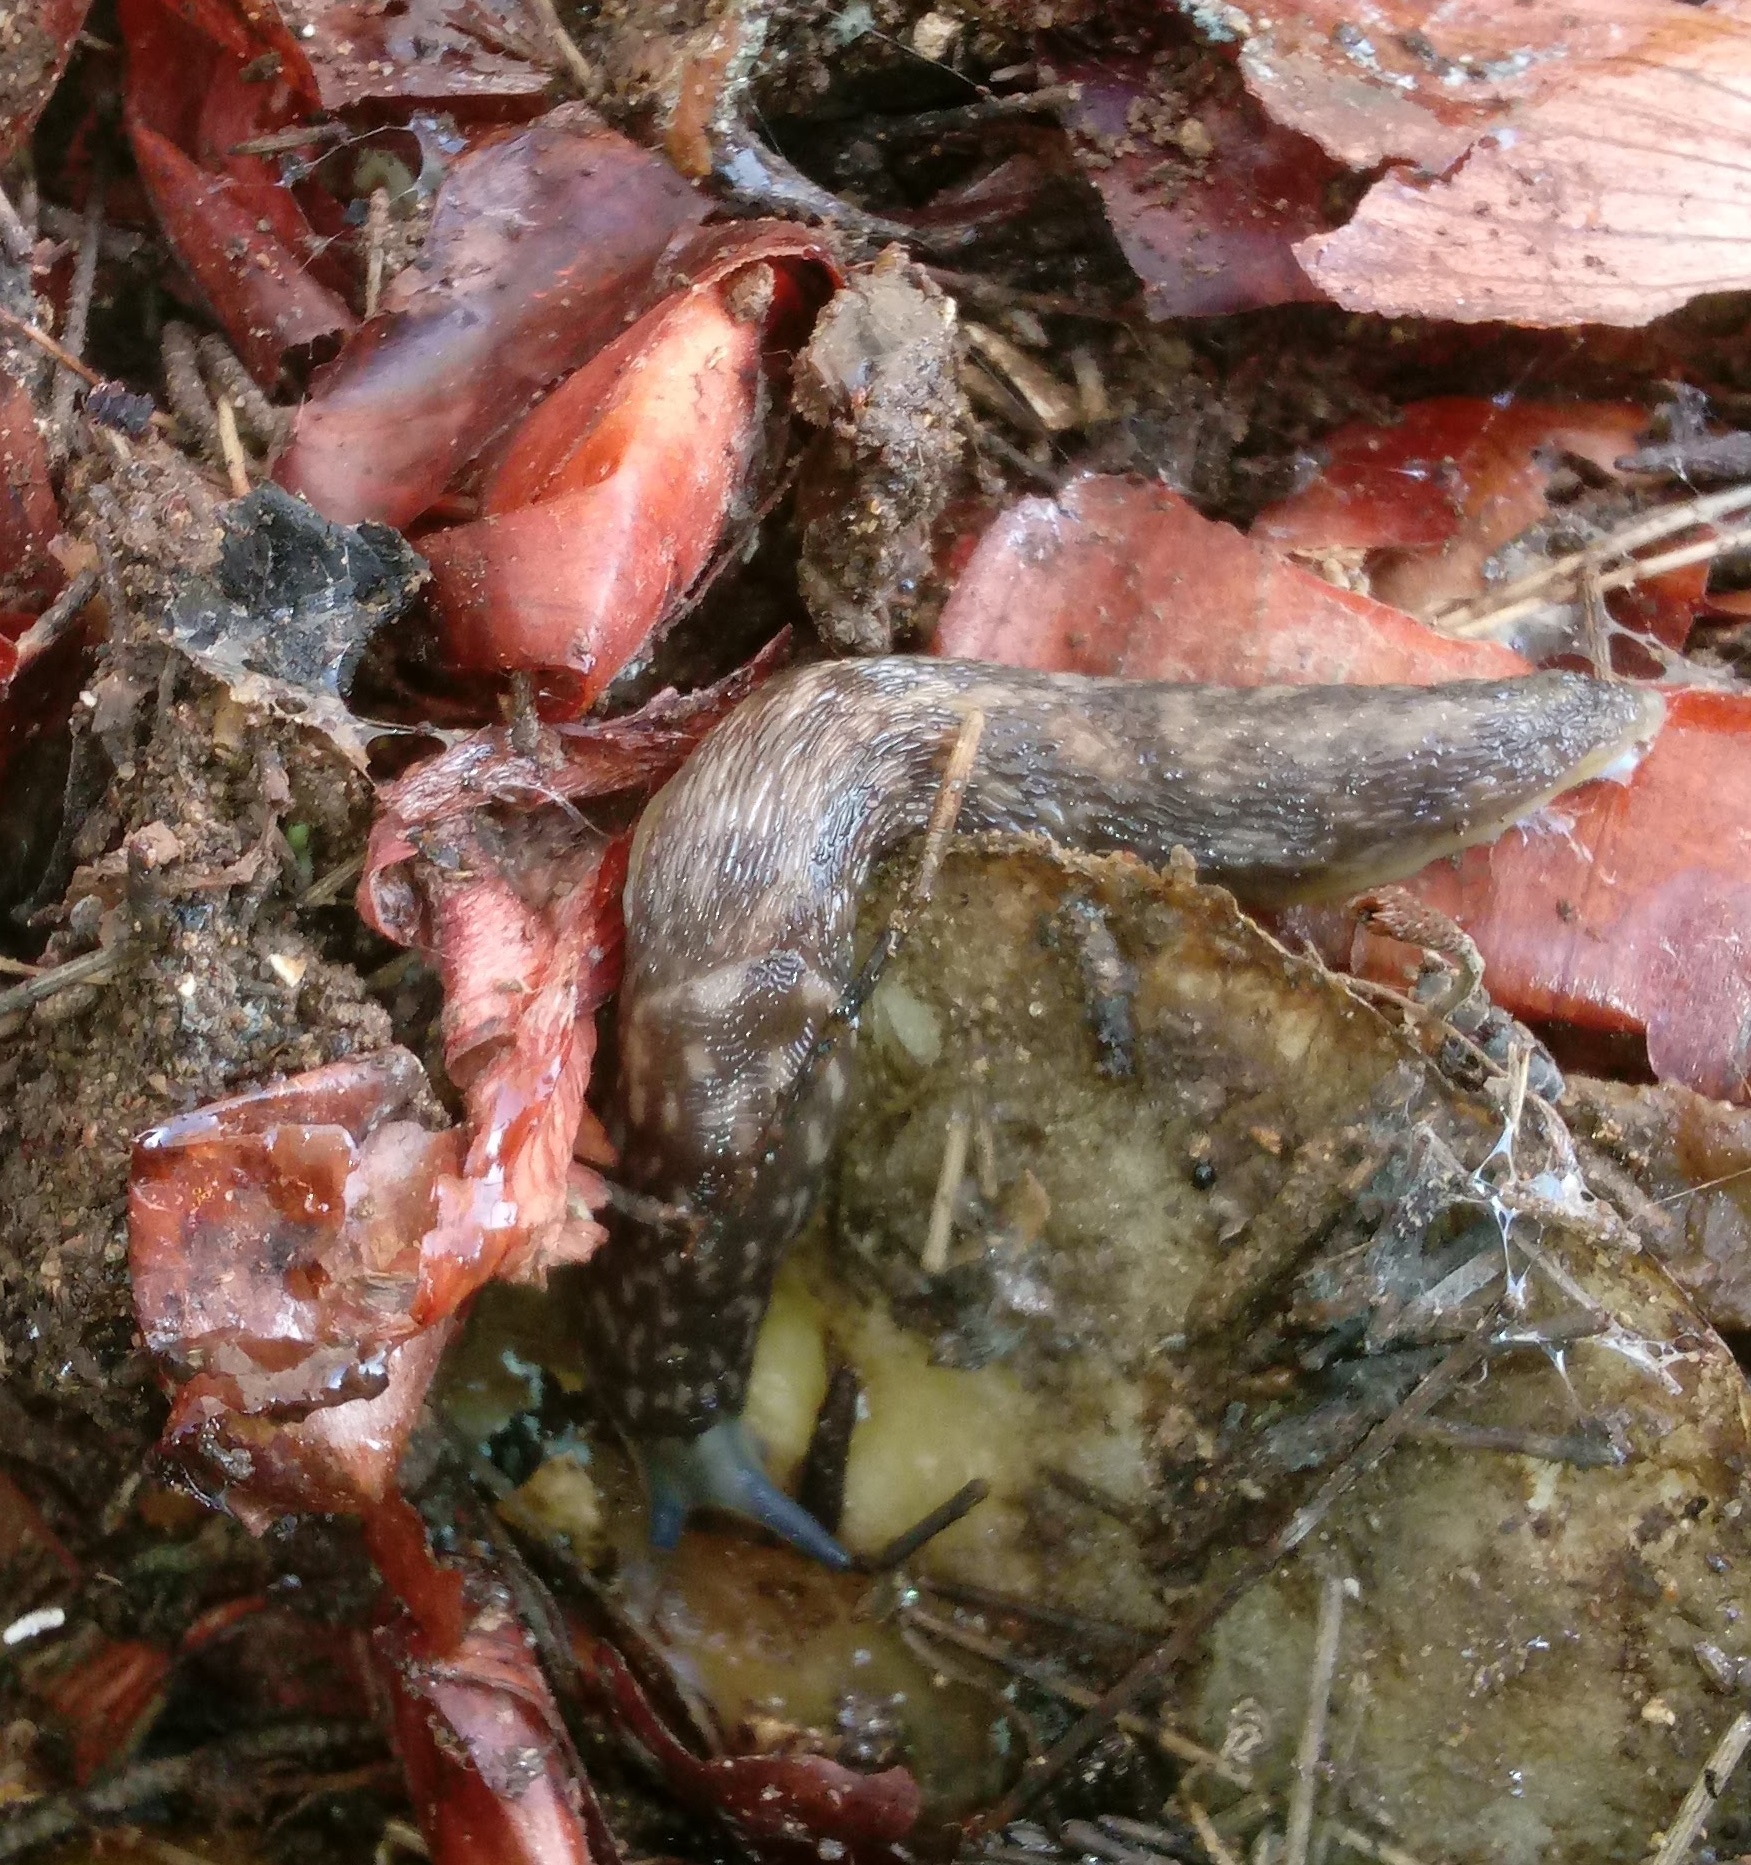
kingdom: Animalia
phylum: Mollusca
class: Gastropoda
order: Stylommatophora
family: Limacidae
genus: Limacus
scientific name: Limacus flavus
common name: Yellow gardenslug
